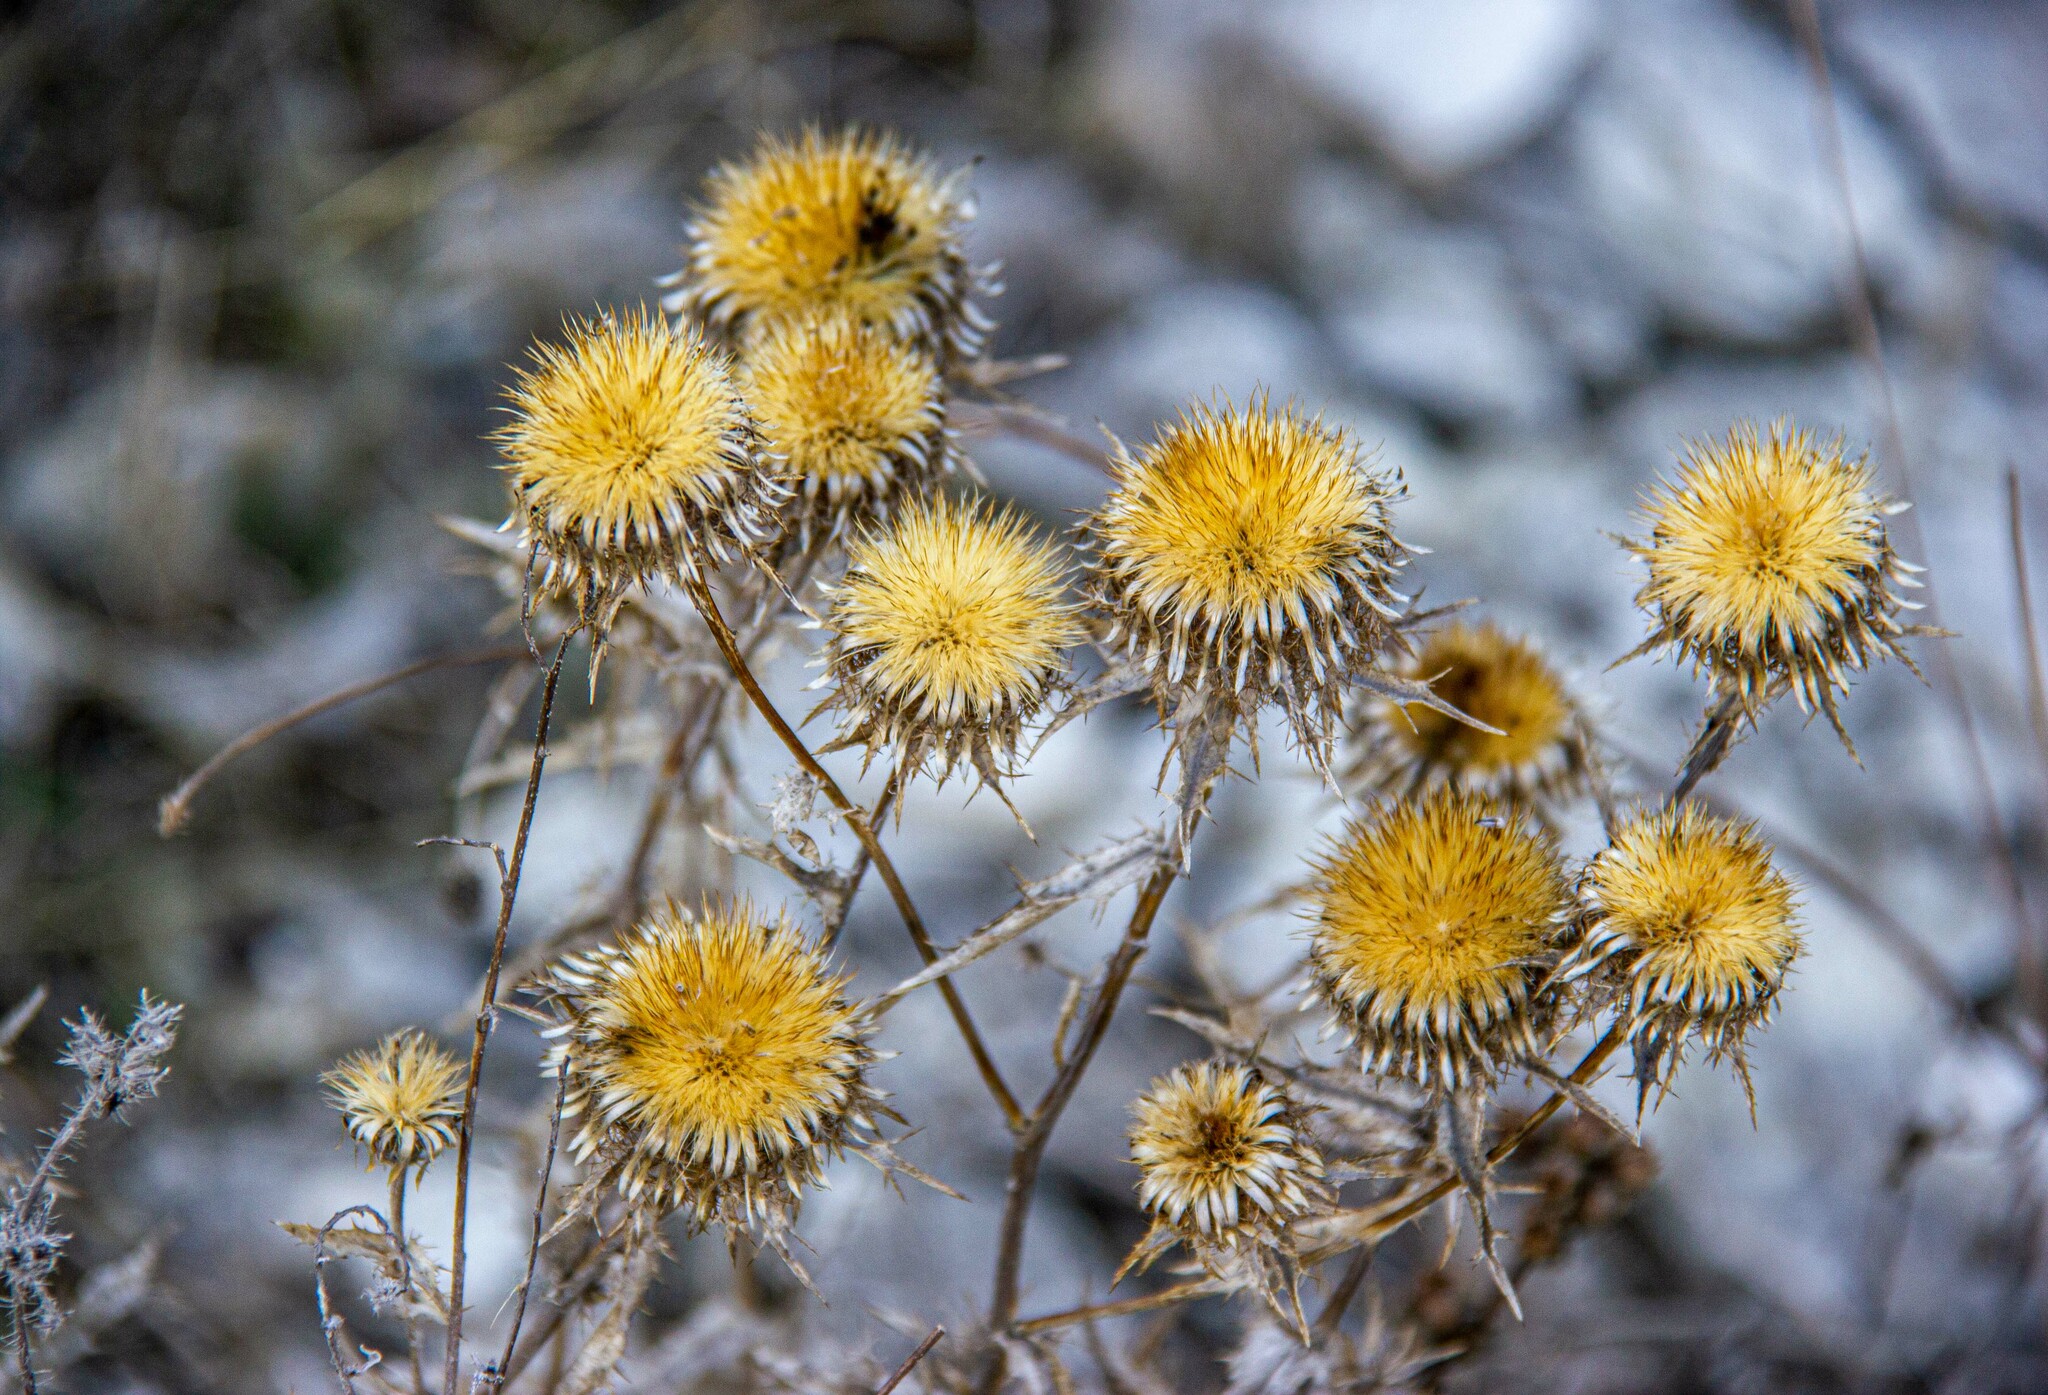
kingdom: Plantae
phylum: Tracheophyta
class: Magnoliopsida
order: Asterales
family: Asteraceae
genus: Carlina
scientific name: Carlina biebersteinii
